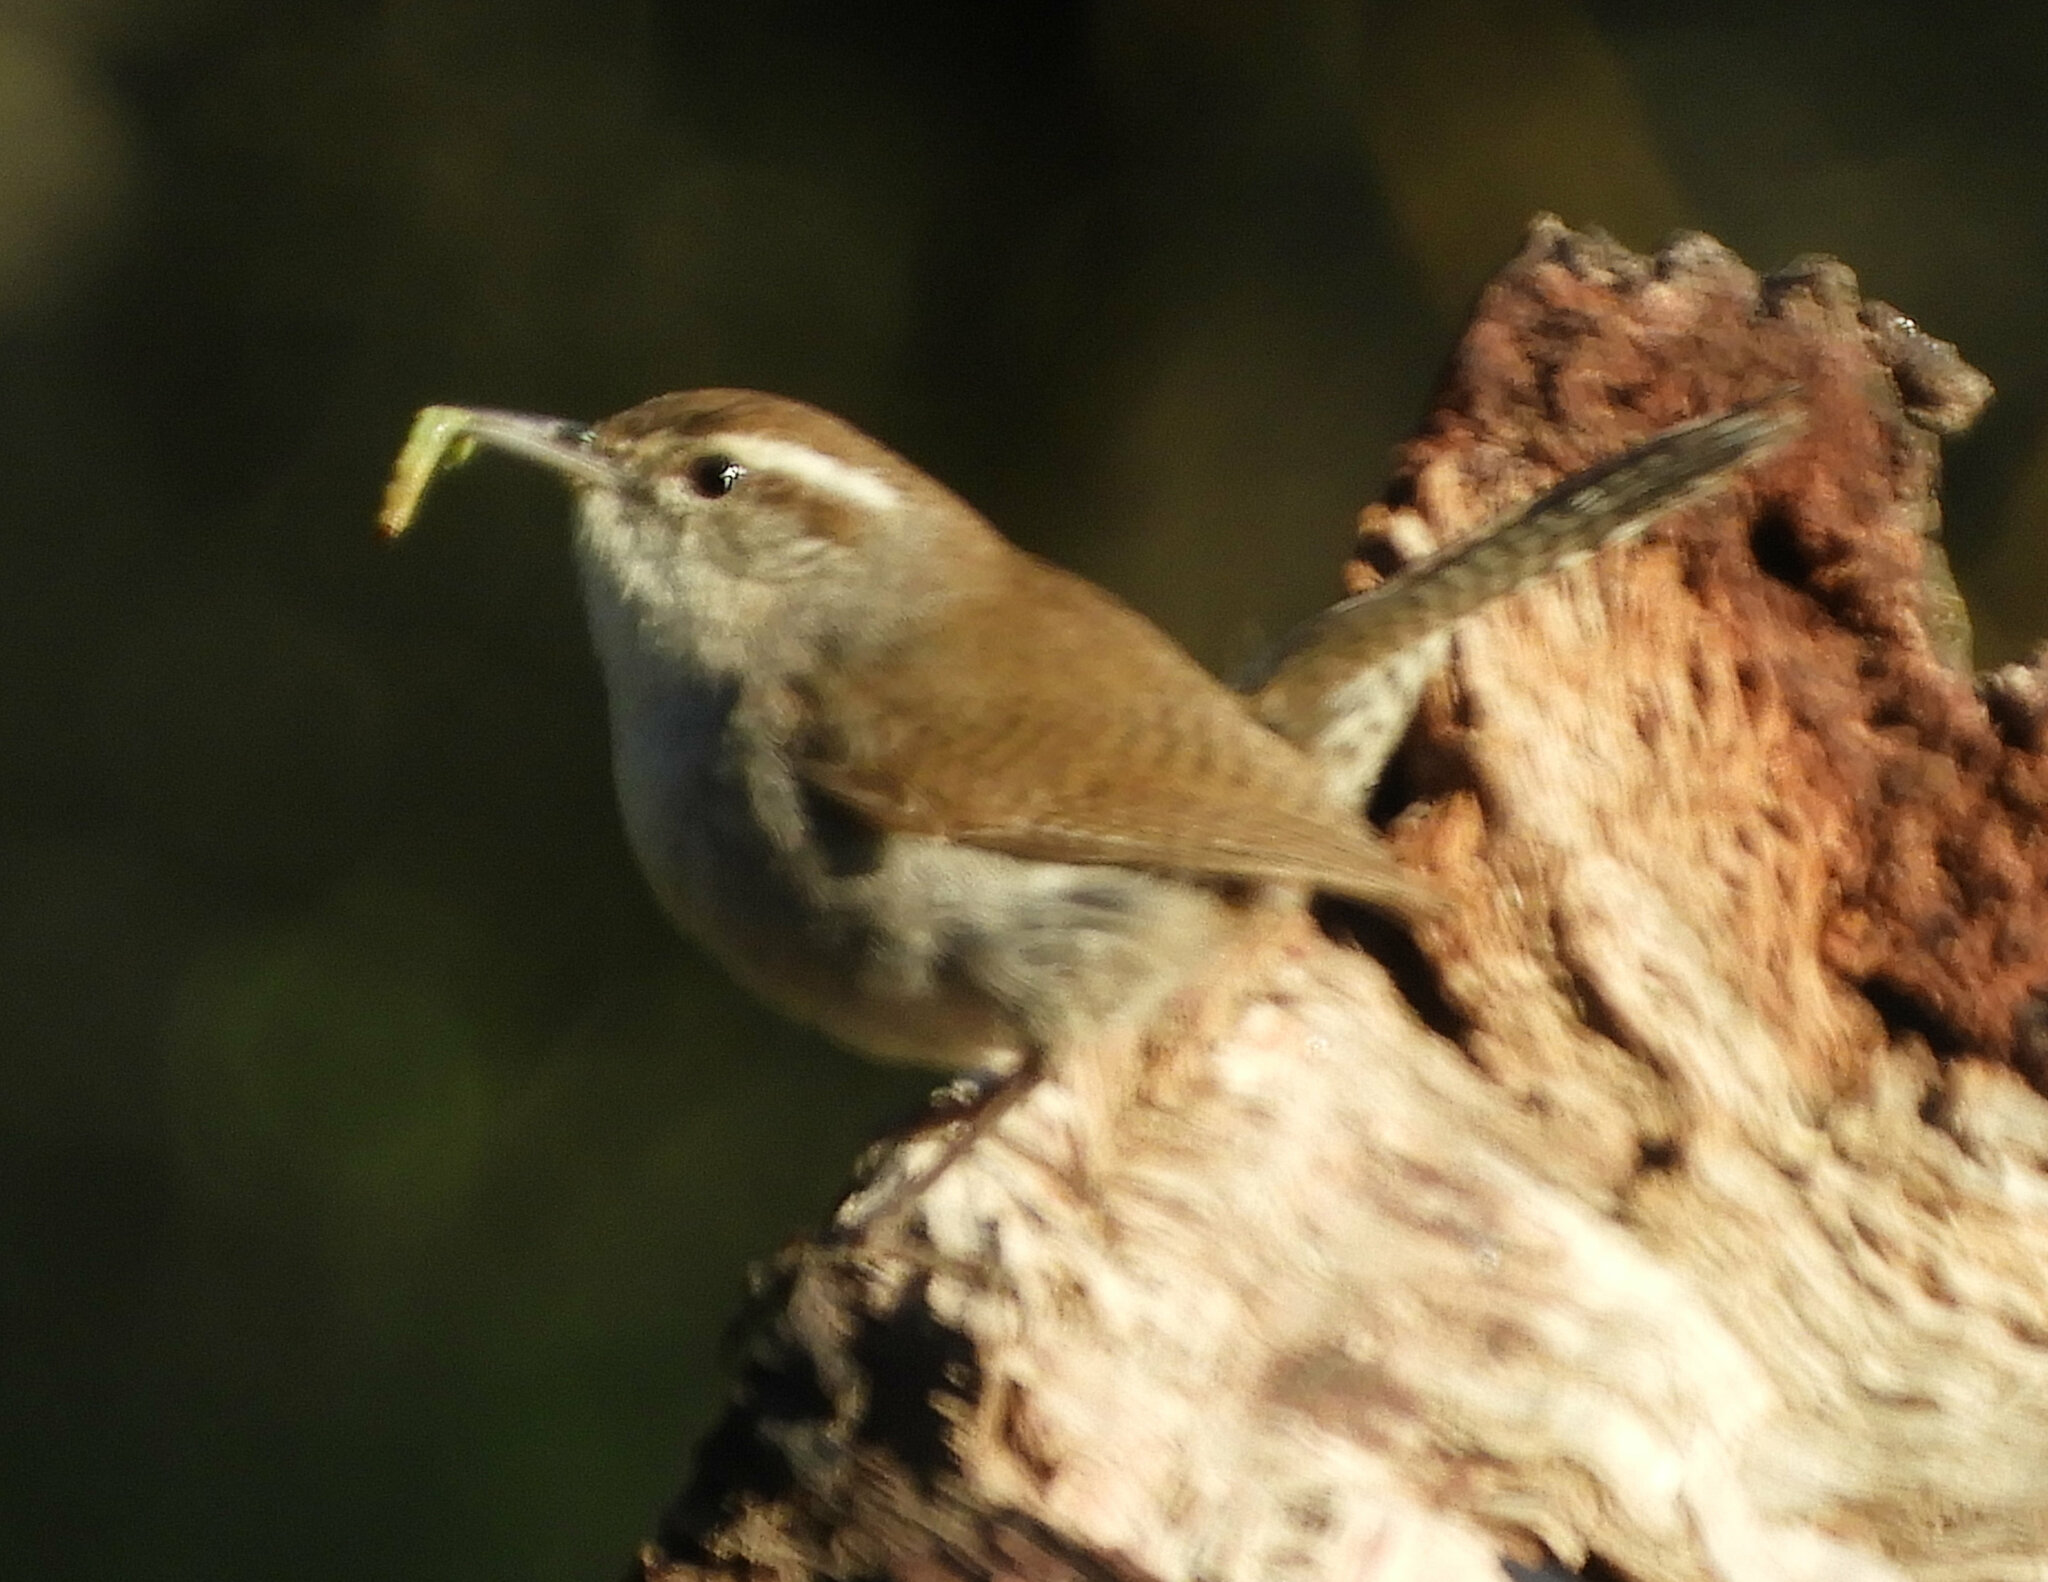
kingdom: Animalia
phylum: Chordata
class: Aves
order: Passeriformes
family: Troglodytidae
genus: Thryomanes
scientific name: Thryomanes bewickii
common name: Bewick's wren
